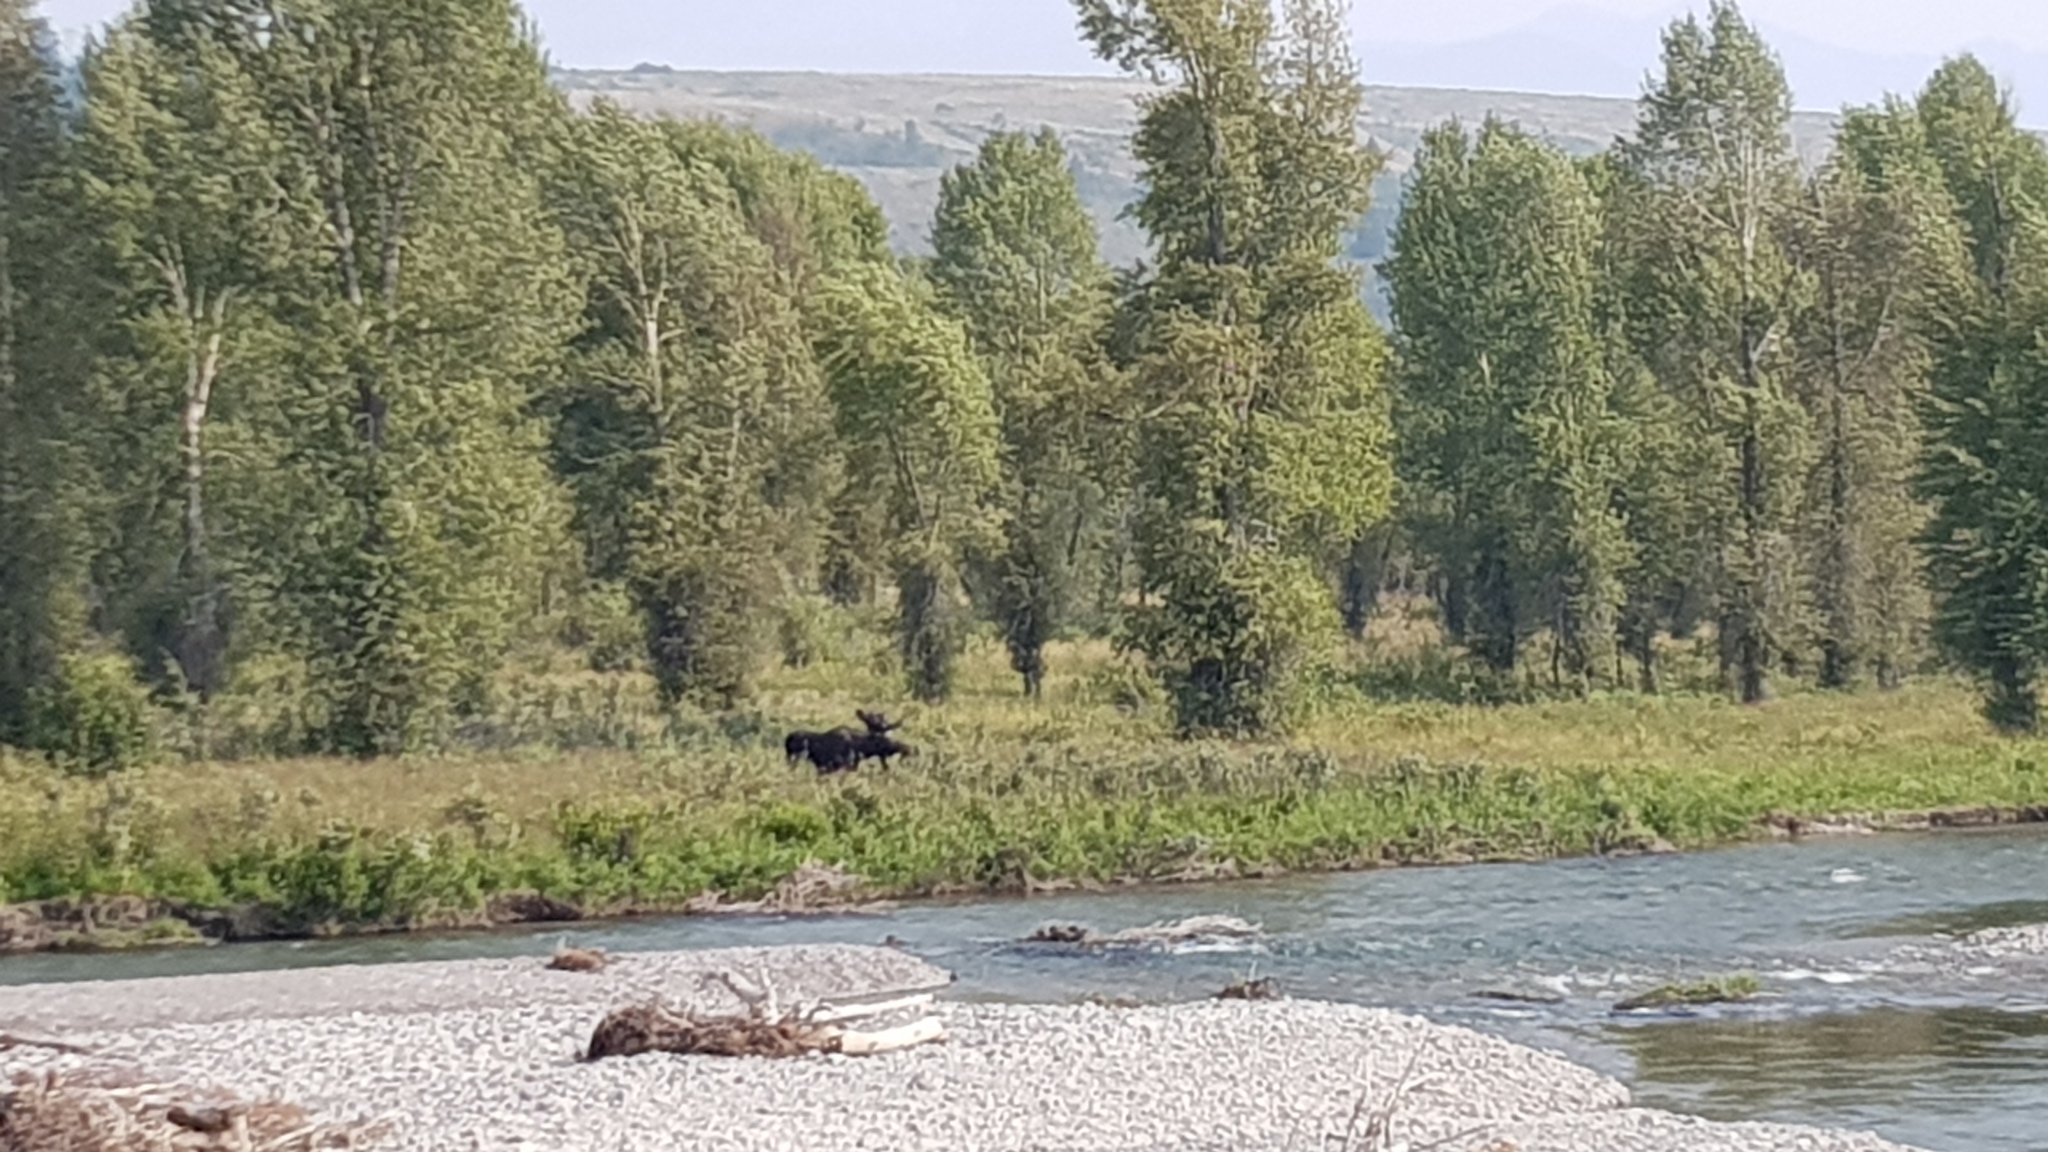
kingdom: Animalia
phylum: Chordata
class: Mammalia
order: Artiodactyla
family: Cervidae
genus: Alces
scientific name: Alces alces
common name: Moose
